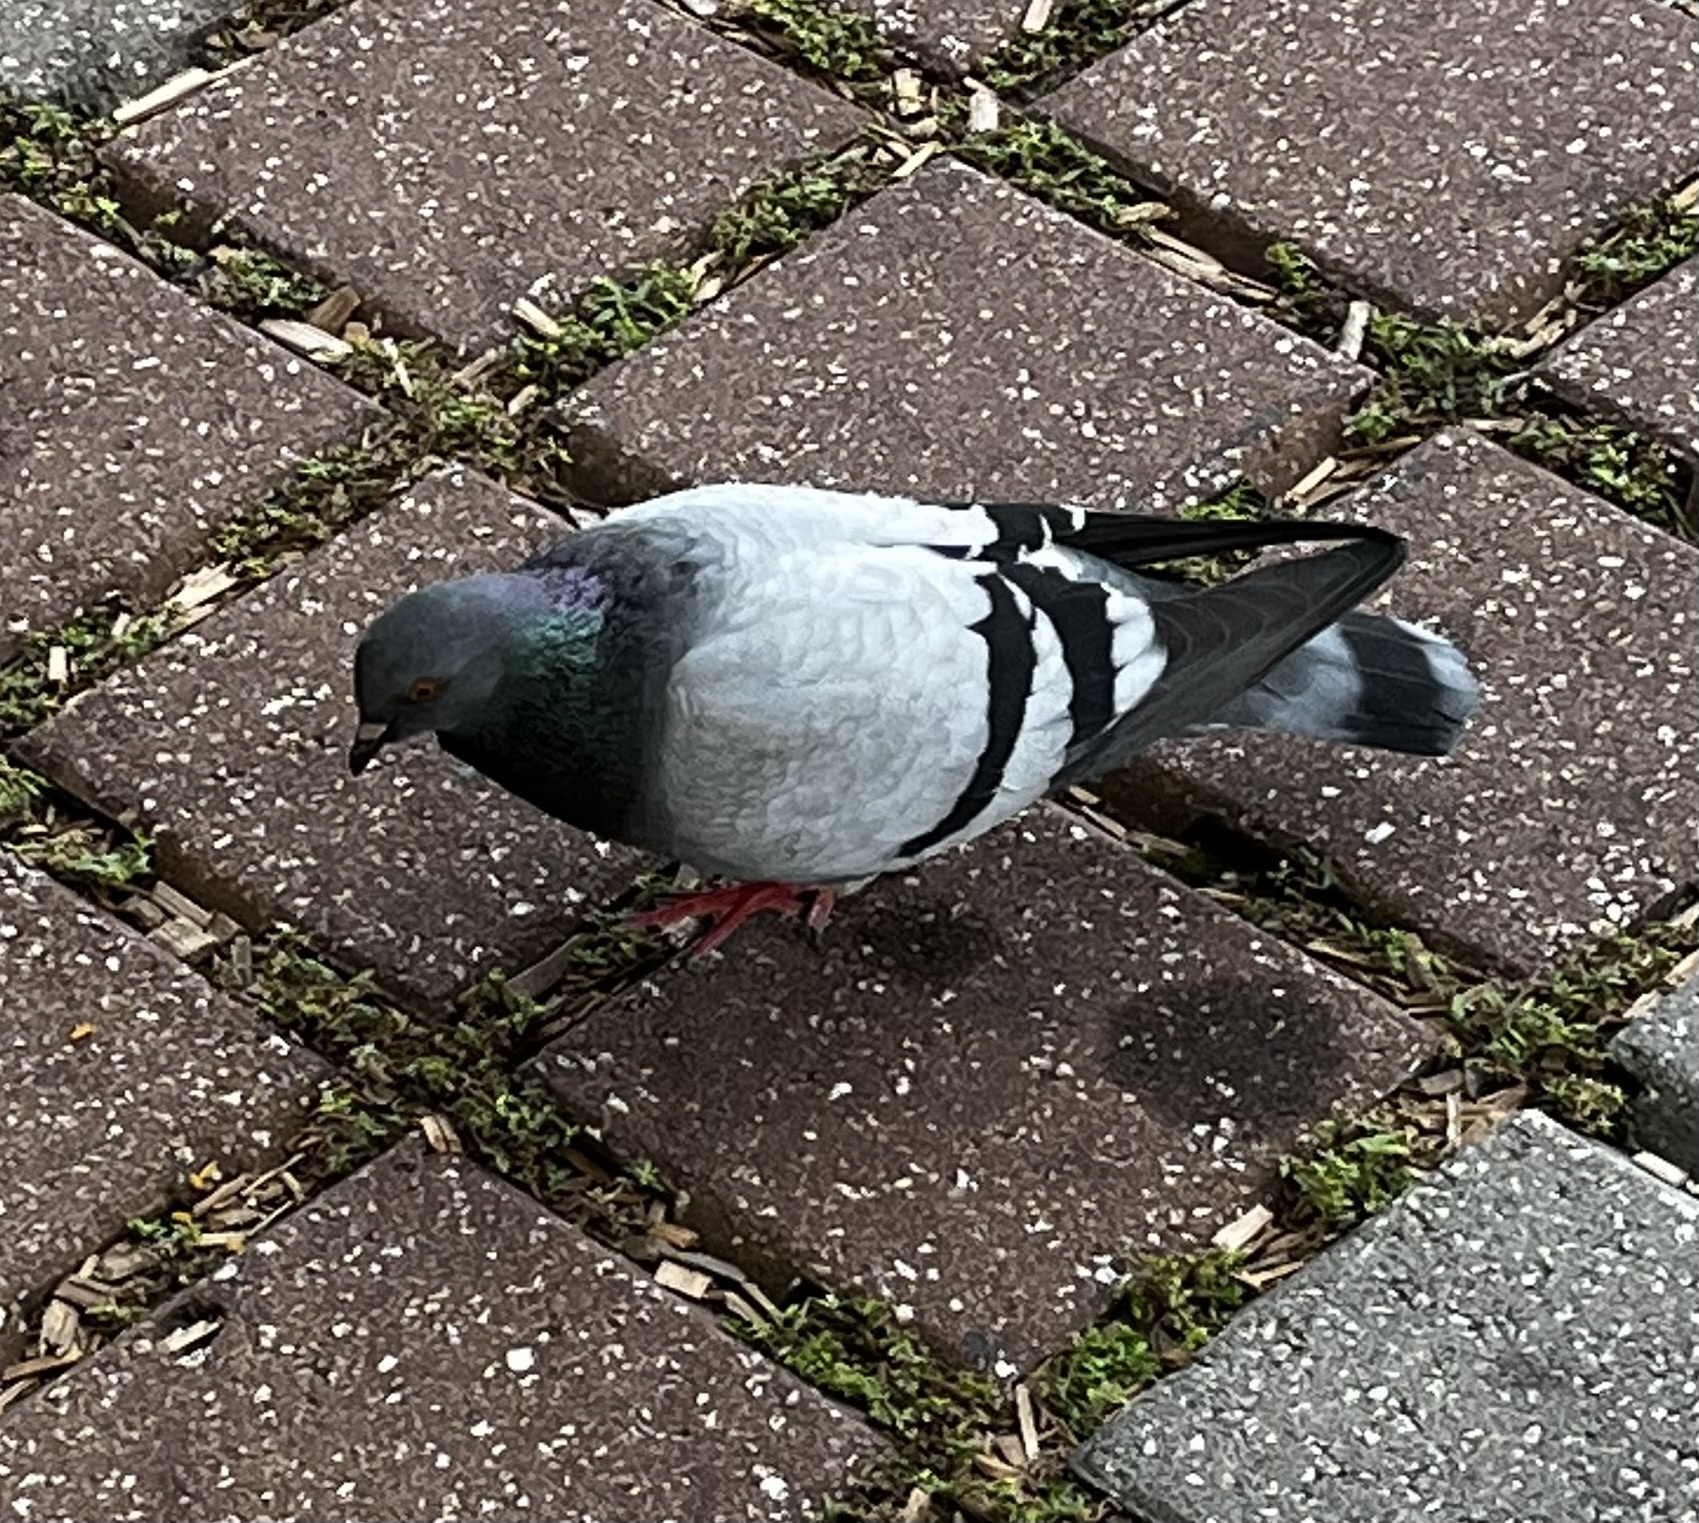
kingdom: Animalia
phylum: Chordata
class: Aves
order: Columbiformes
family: Columbidae
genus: Columba
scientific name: Columba livia
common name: Rock pigeon
